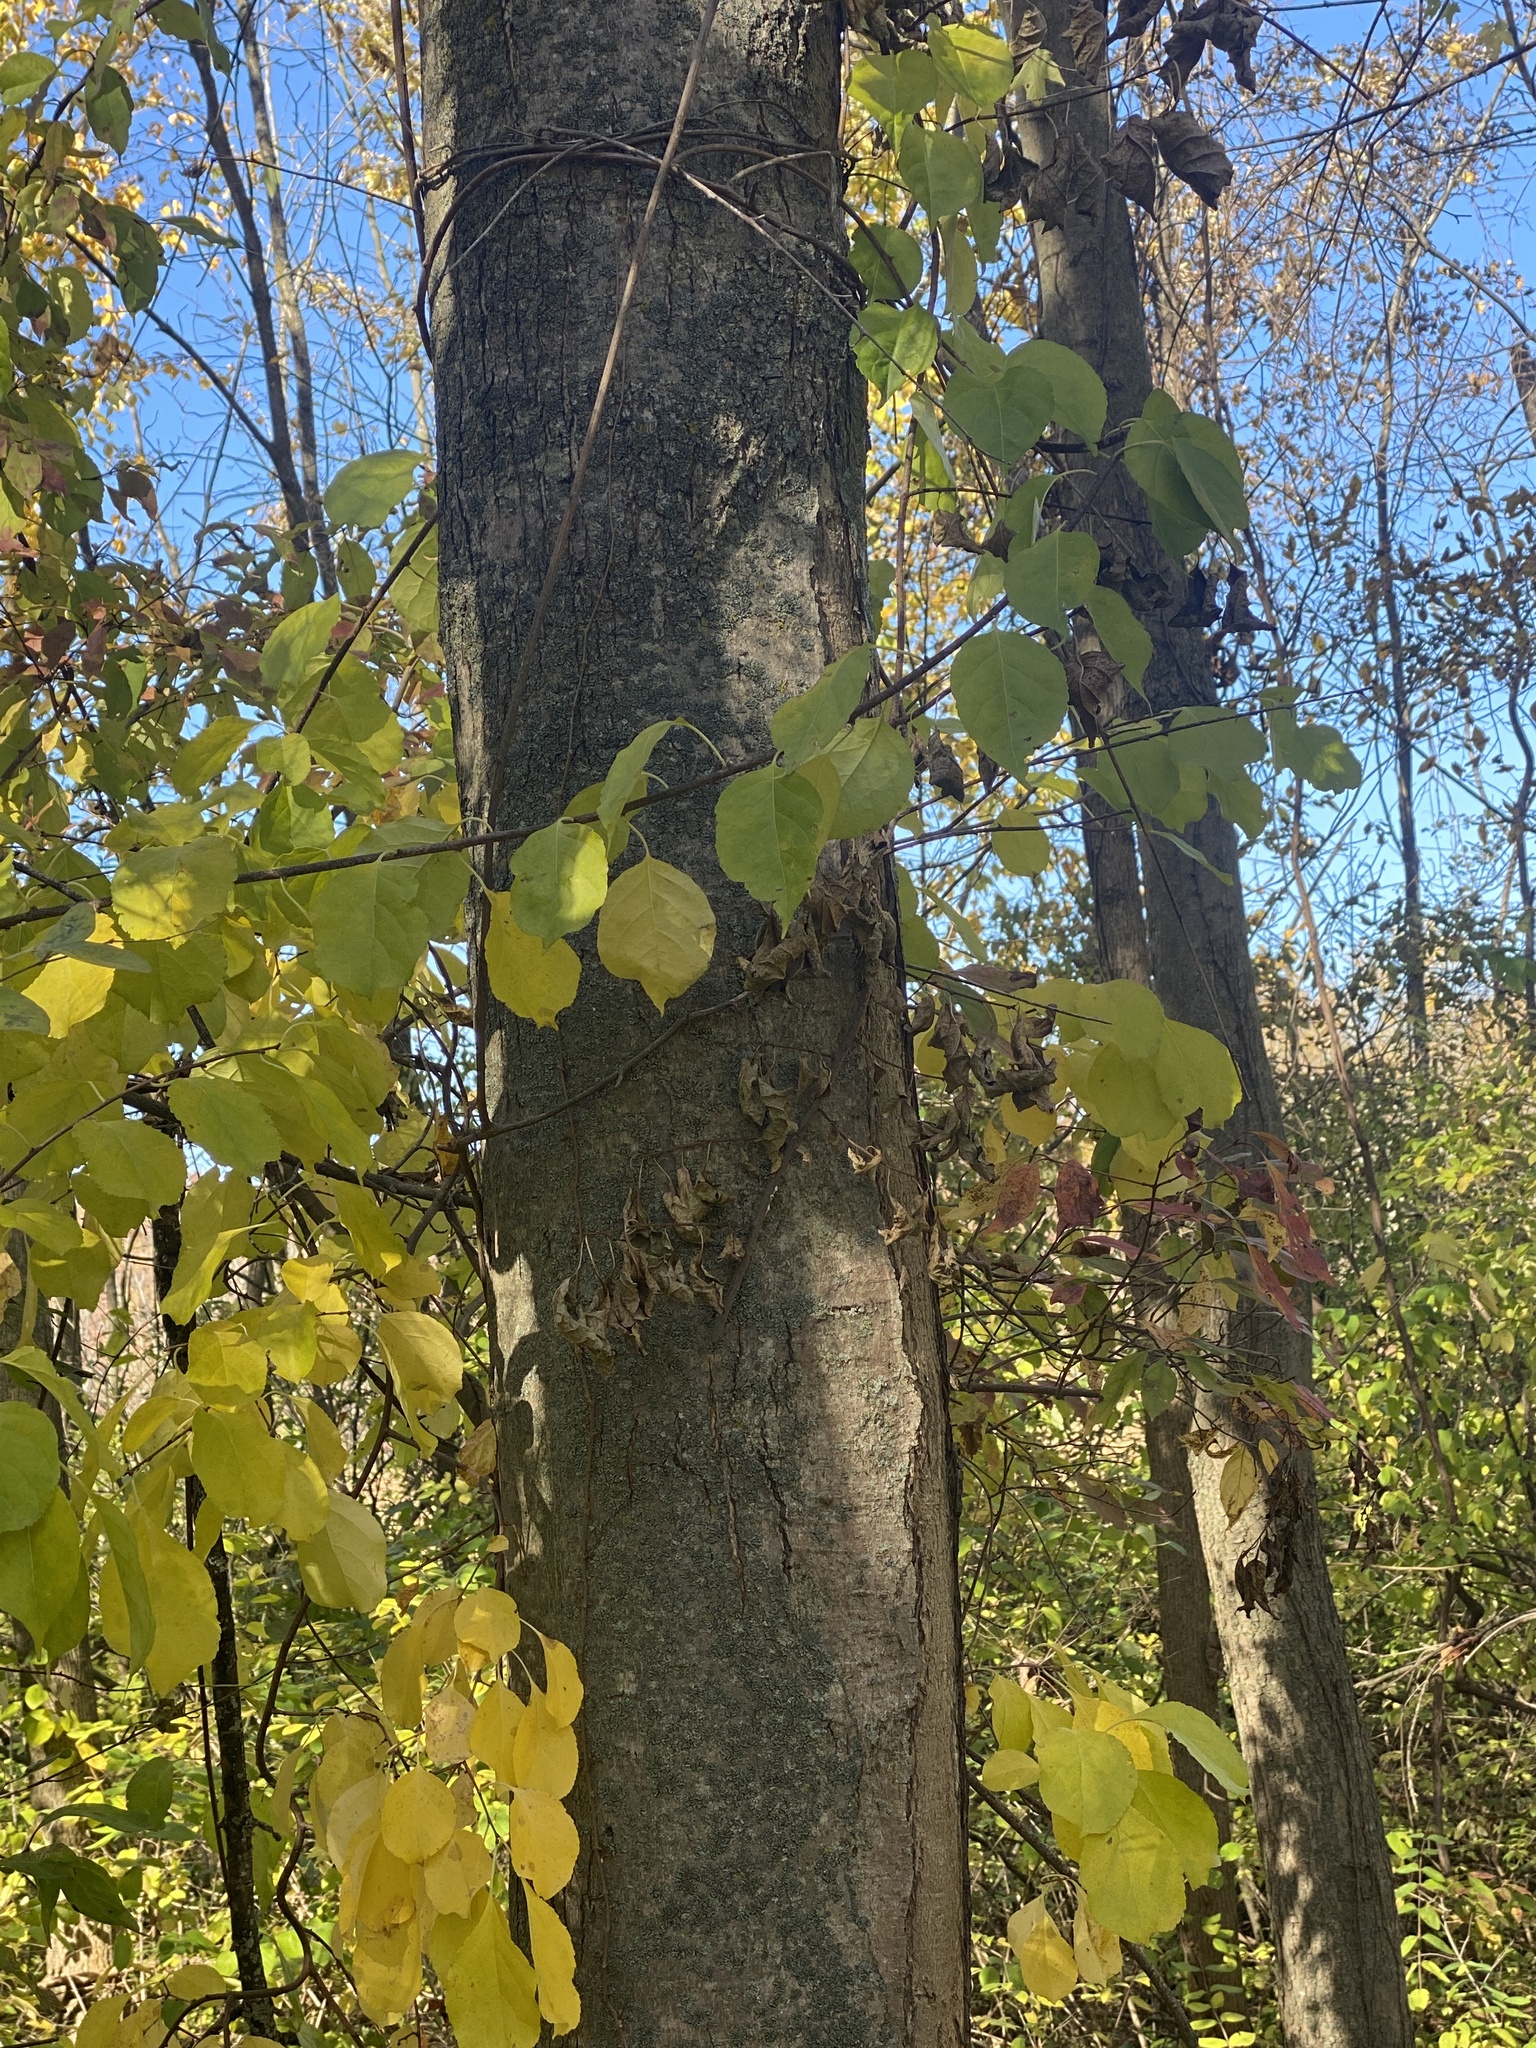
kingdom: Plantae
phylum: Tracheophyta
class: Magnoliopsida
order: Sapindales
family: Sapindaceae
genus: Acer
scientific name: Acer rubrum
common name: Red maple
